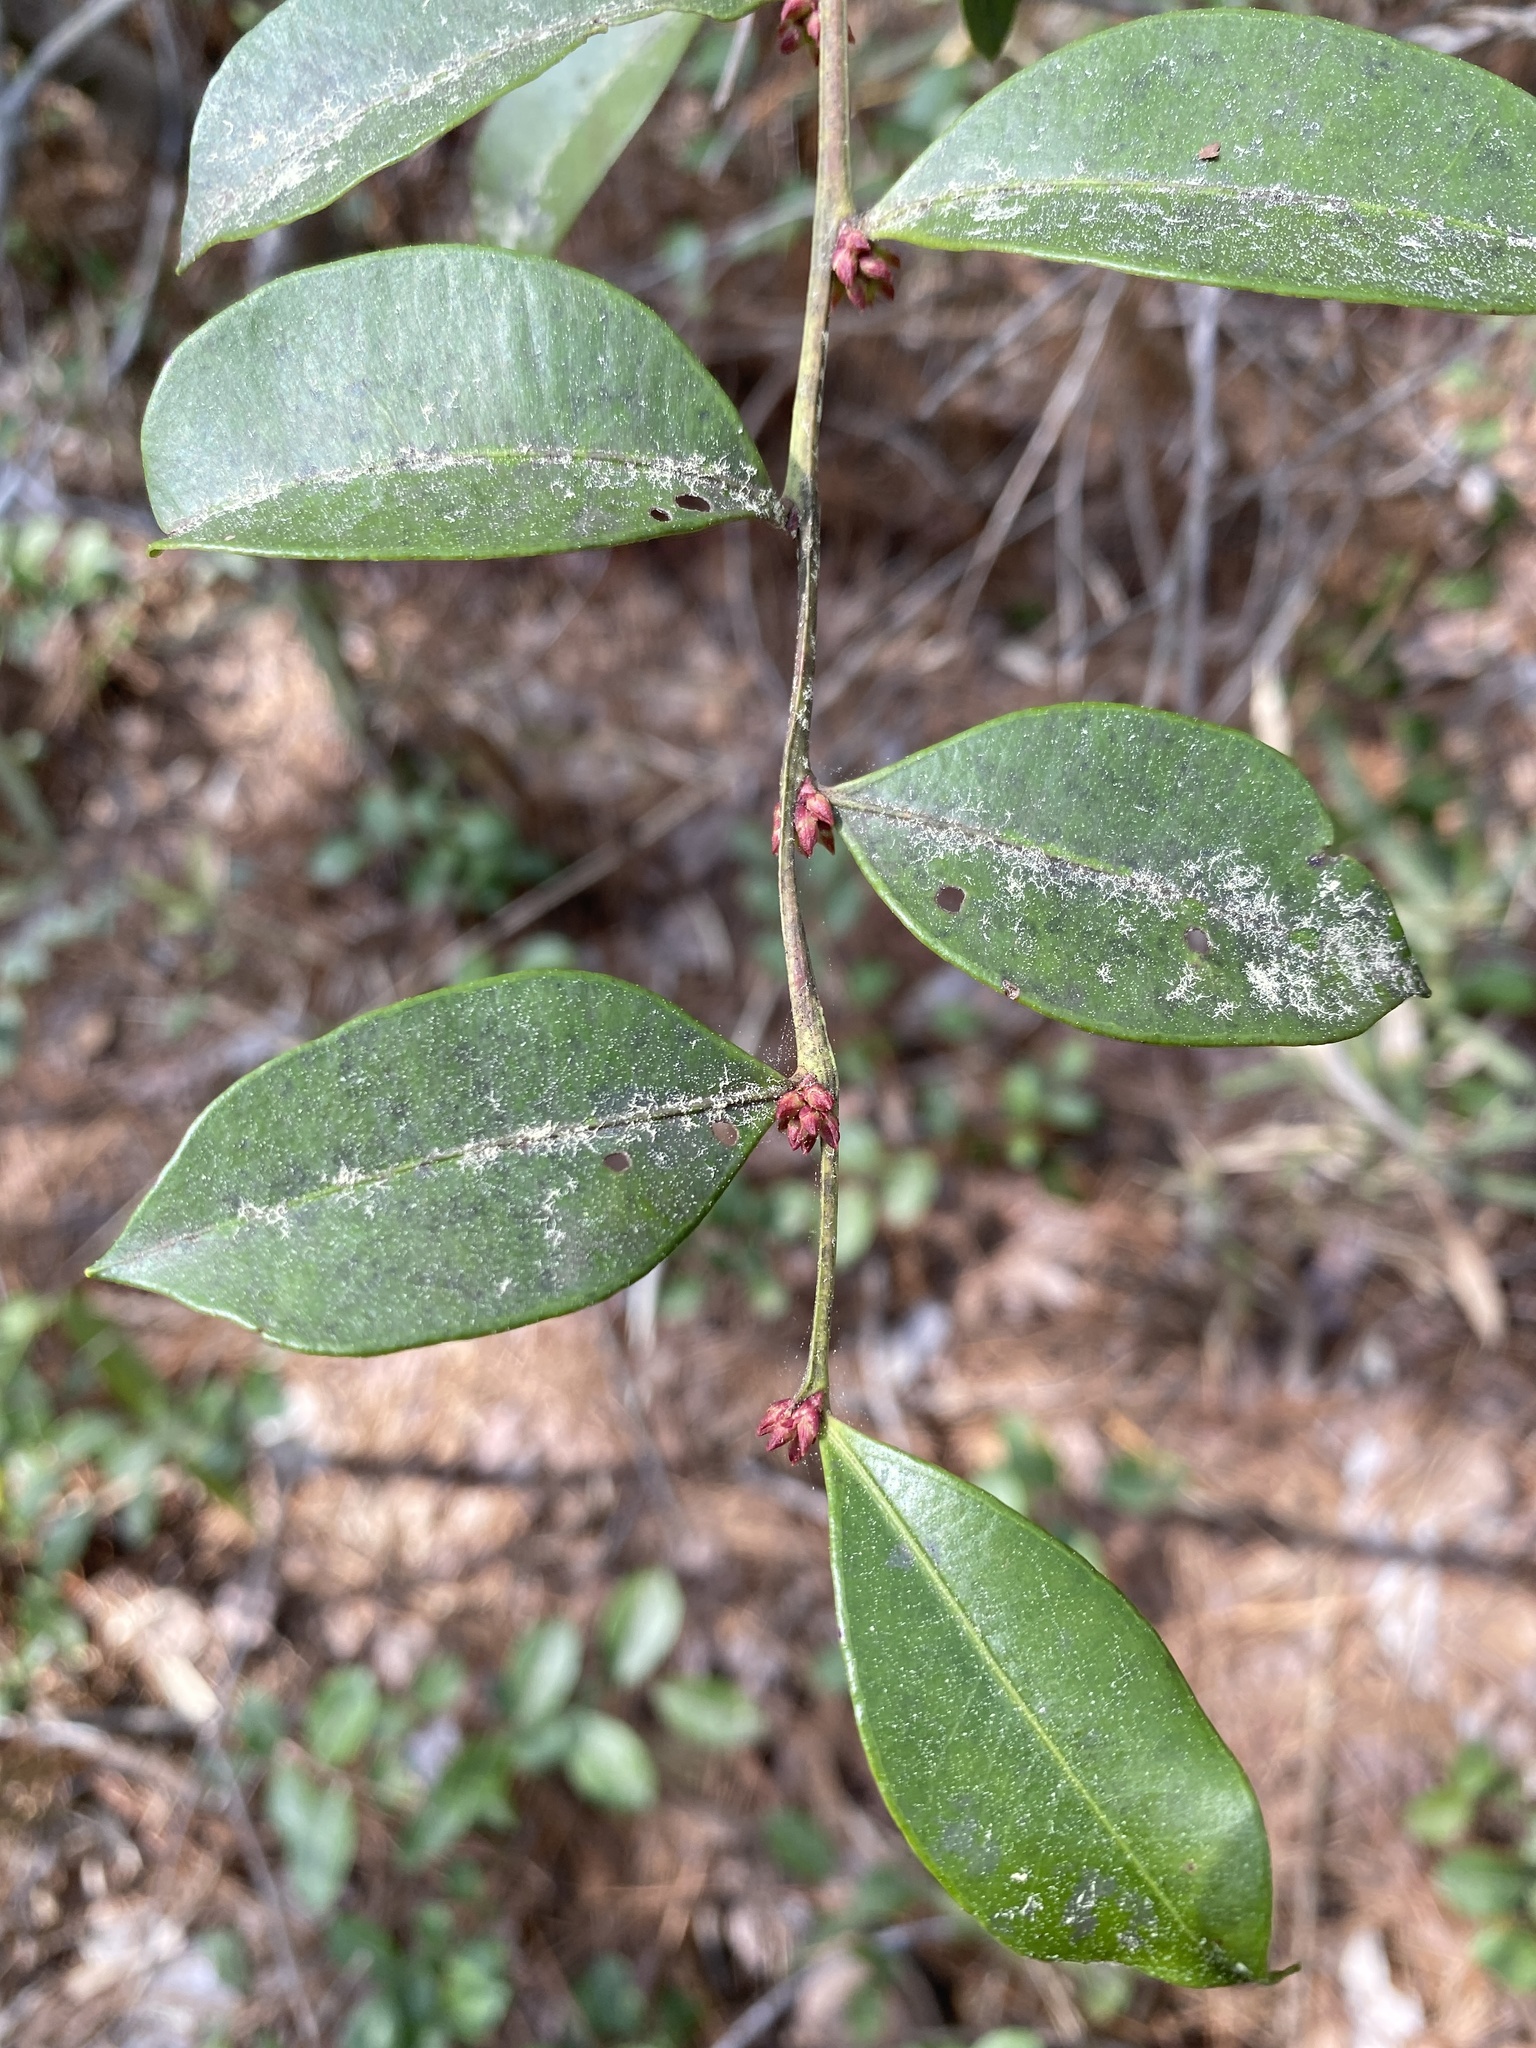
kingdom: Plantae
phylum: Tracheophyta
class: Magnoliopsida
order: Ericales
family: Ericaceae
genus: Lyonia
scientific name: Lyonia lucida
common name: Fetterbush
